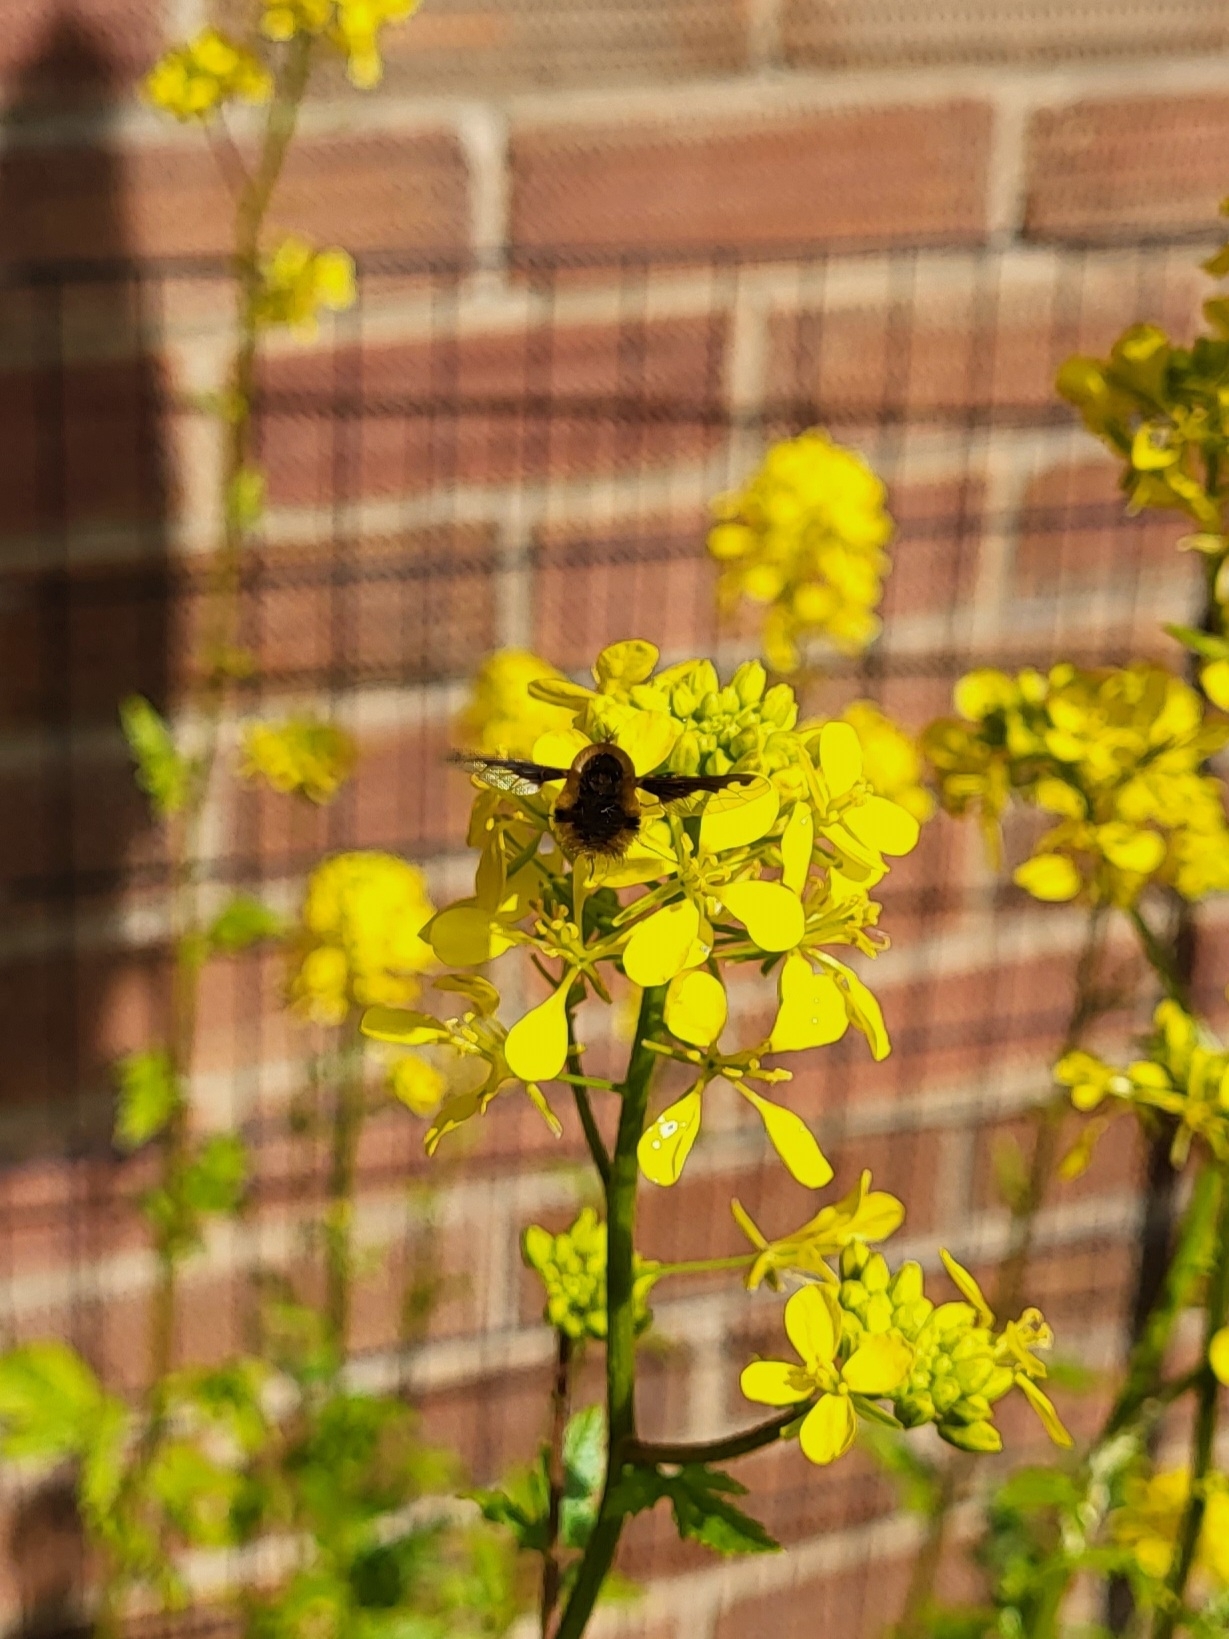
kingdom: Animalia
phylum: Arthropoda
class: Insecta
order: Diptera
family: Bombyliidae
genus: Bombylius
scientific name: Bombylius major
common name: Bee fly
